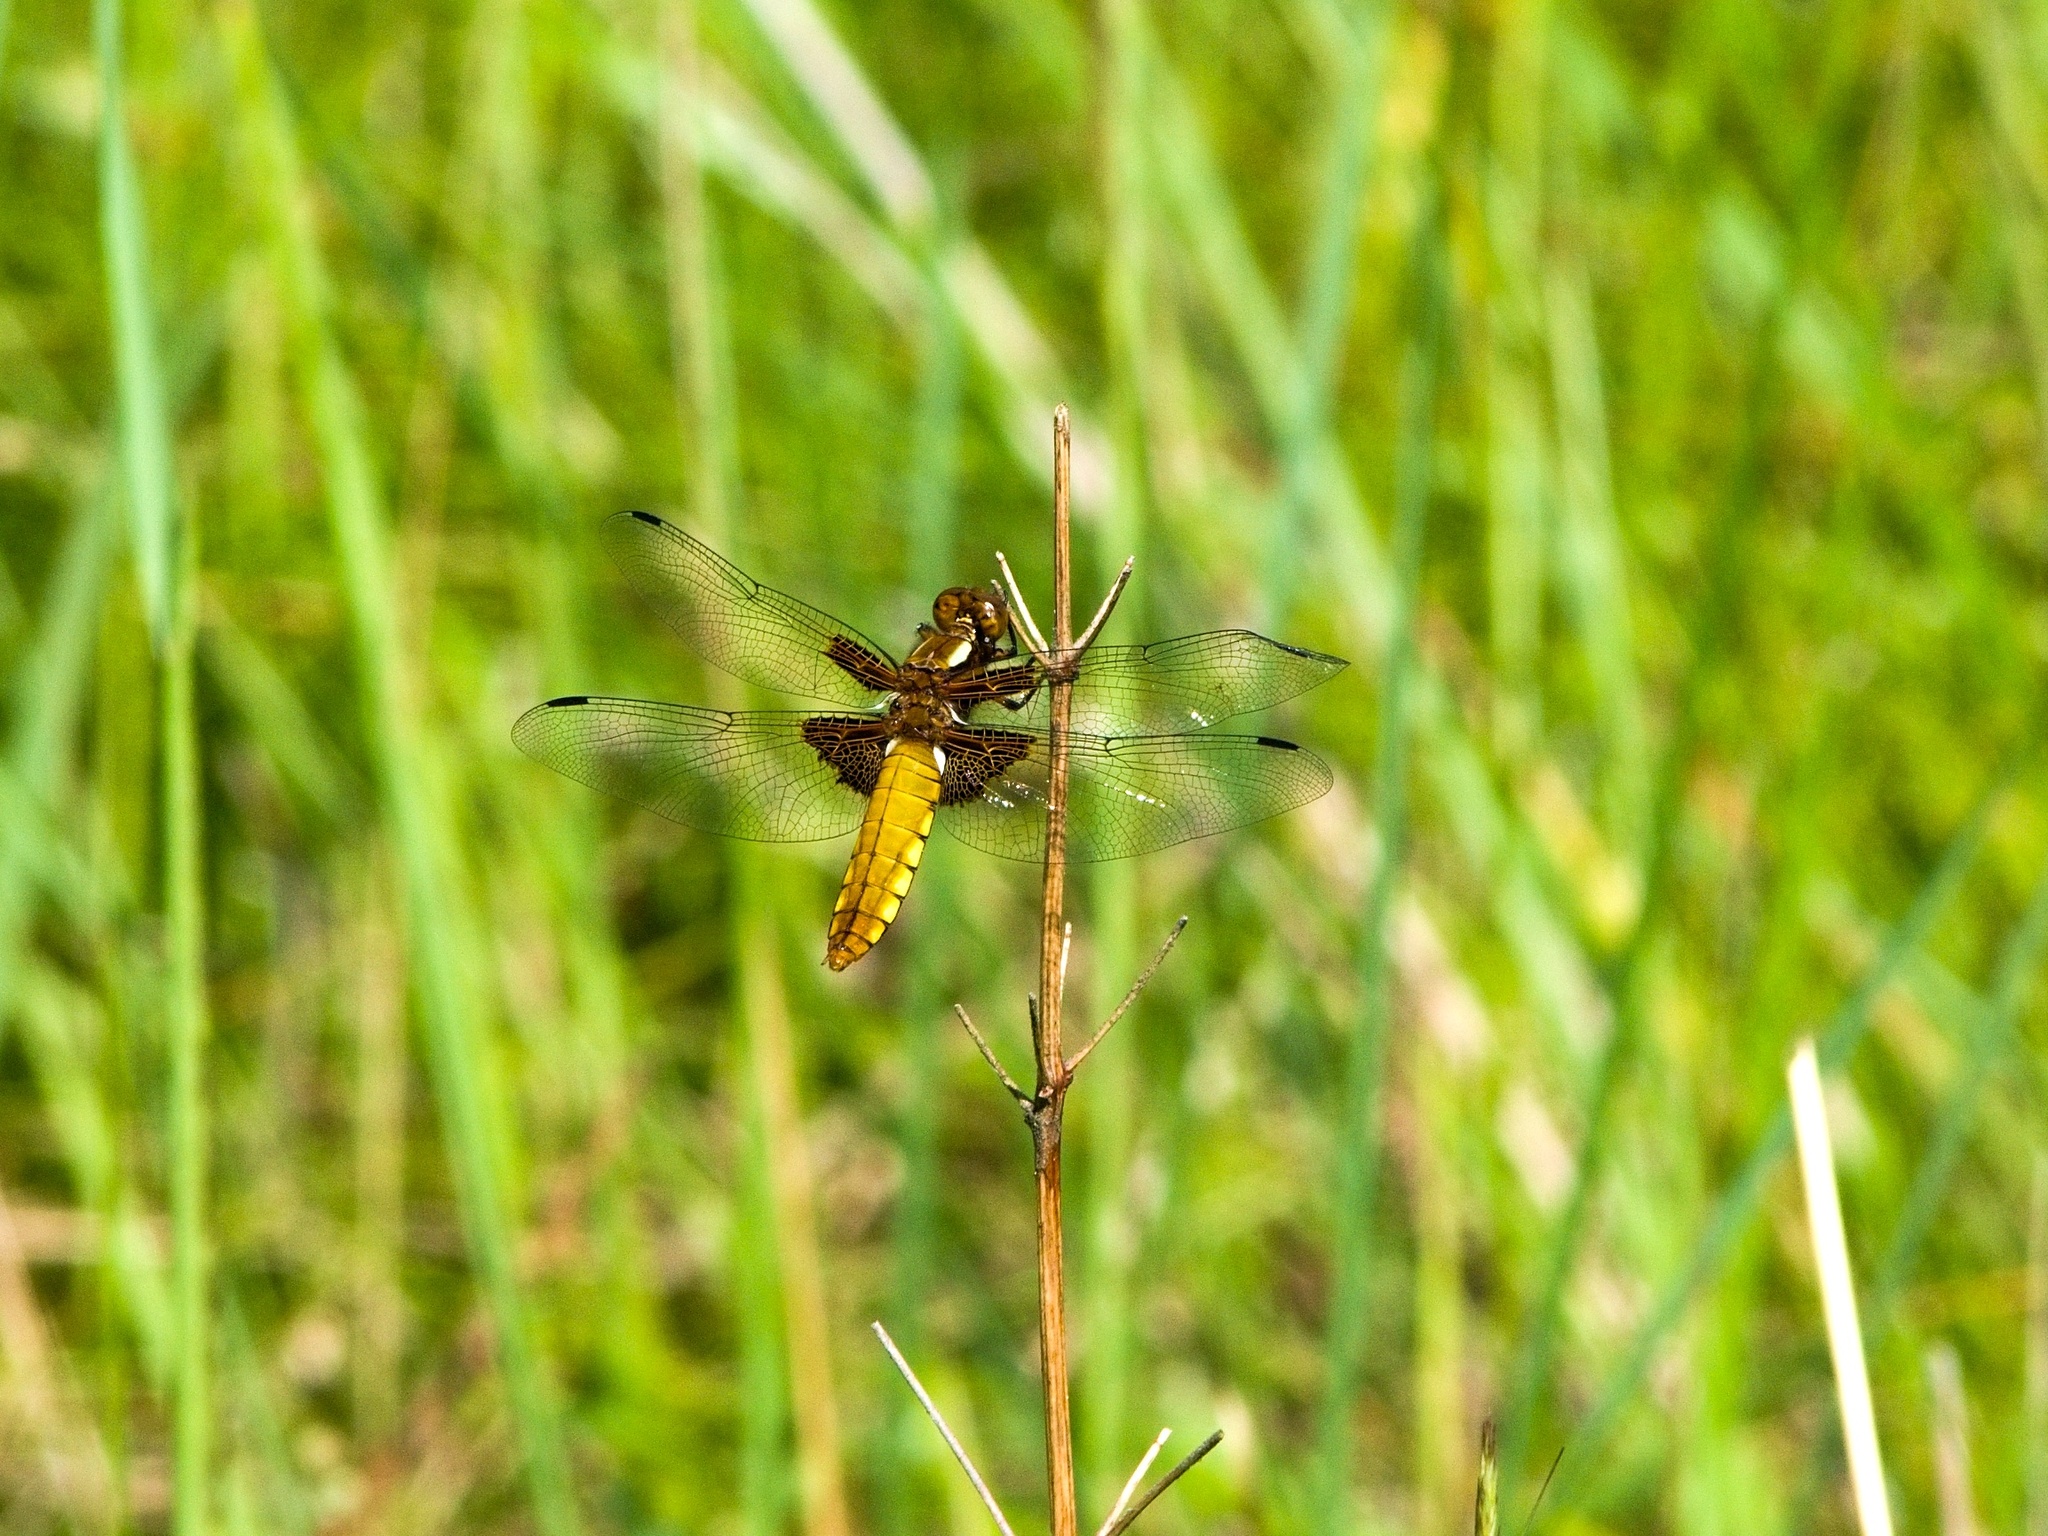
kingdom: Animalia
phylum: Arthropoda
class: Insecta
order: Odonata
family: Libellulidae
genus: Libellula
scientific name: Libellula depressa
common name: Broad-bodied chaser
